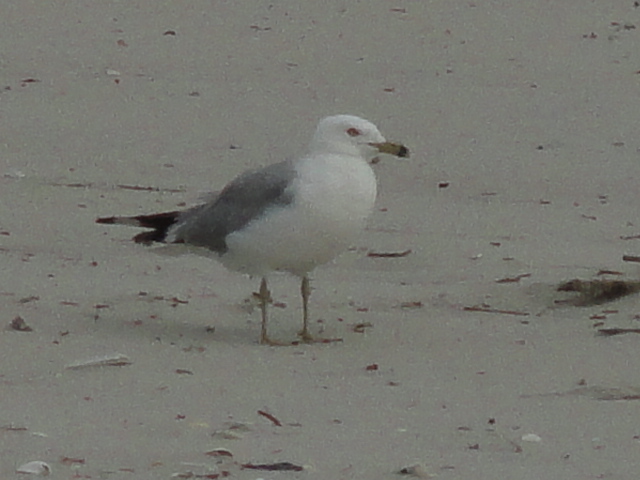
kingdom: Animalia
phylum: Chordata
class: Aves
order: Charadriiformes
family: Laridae
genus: Larus
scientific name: Larus delawarensis
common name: Ring-billed gull
